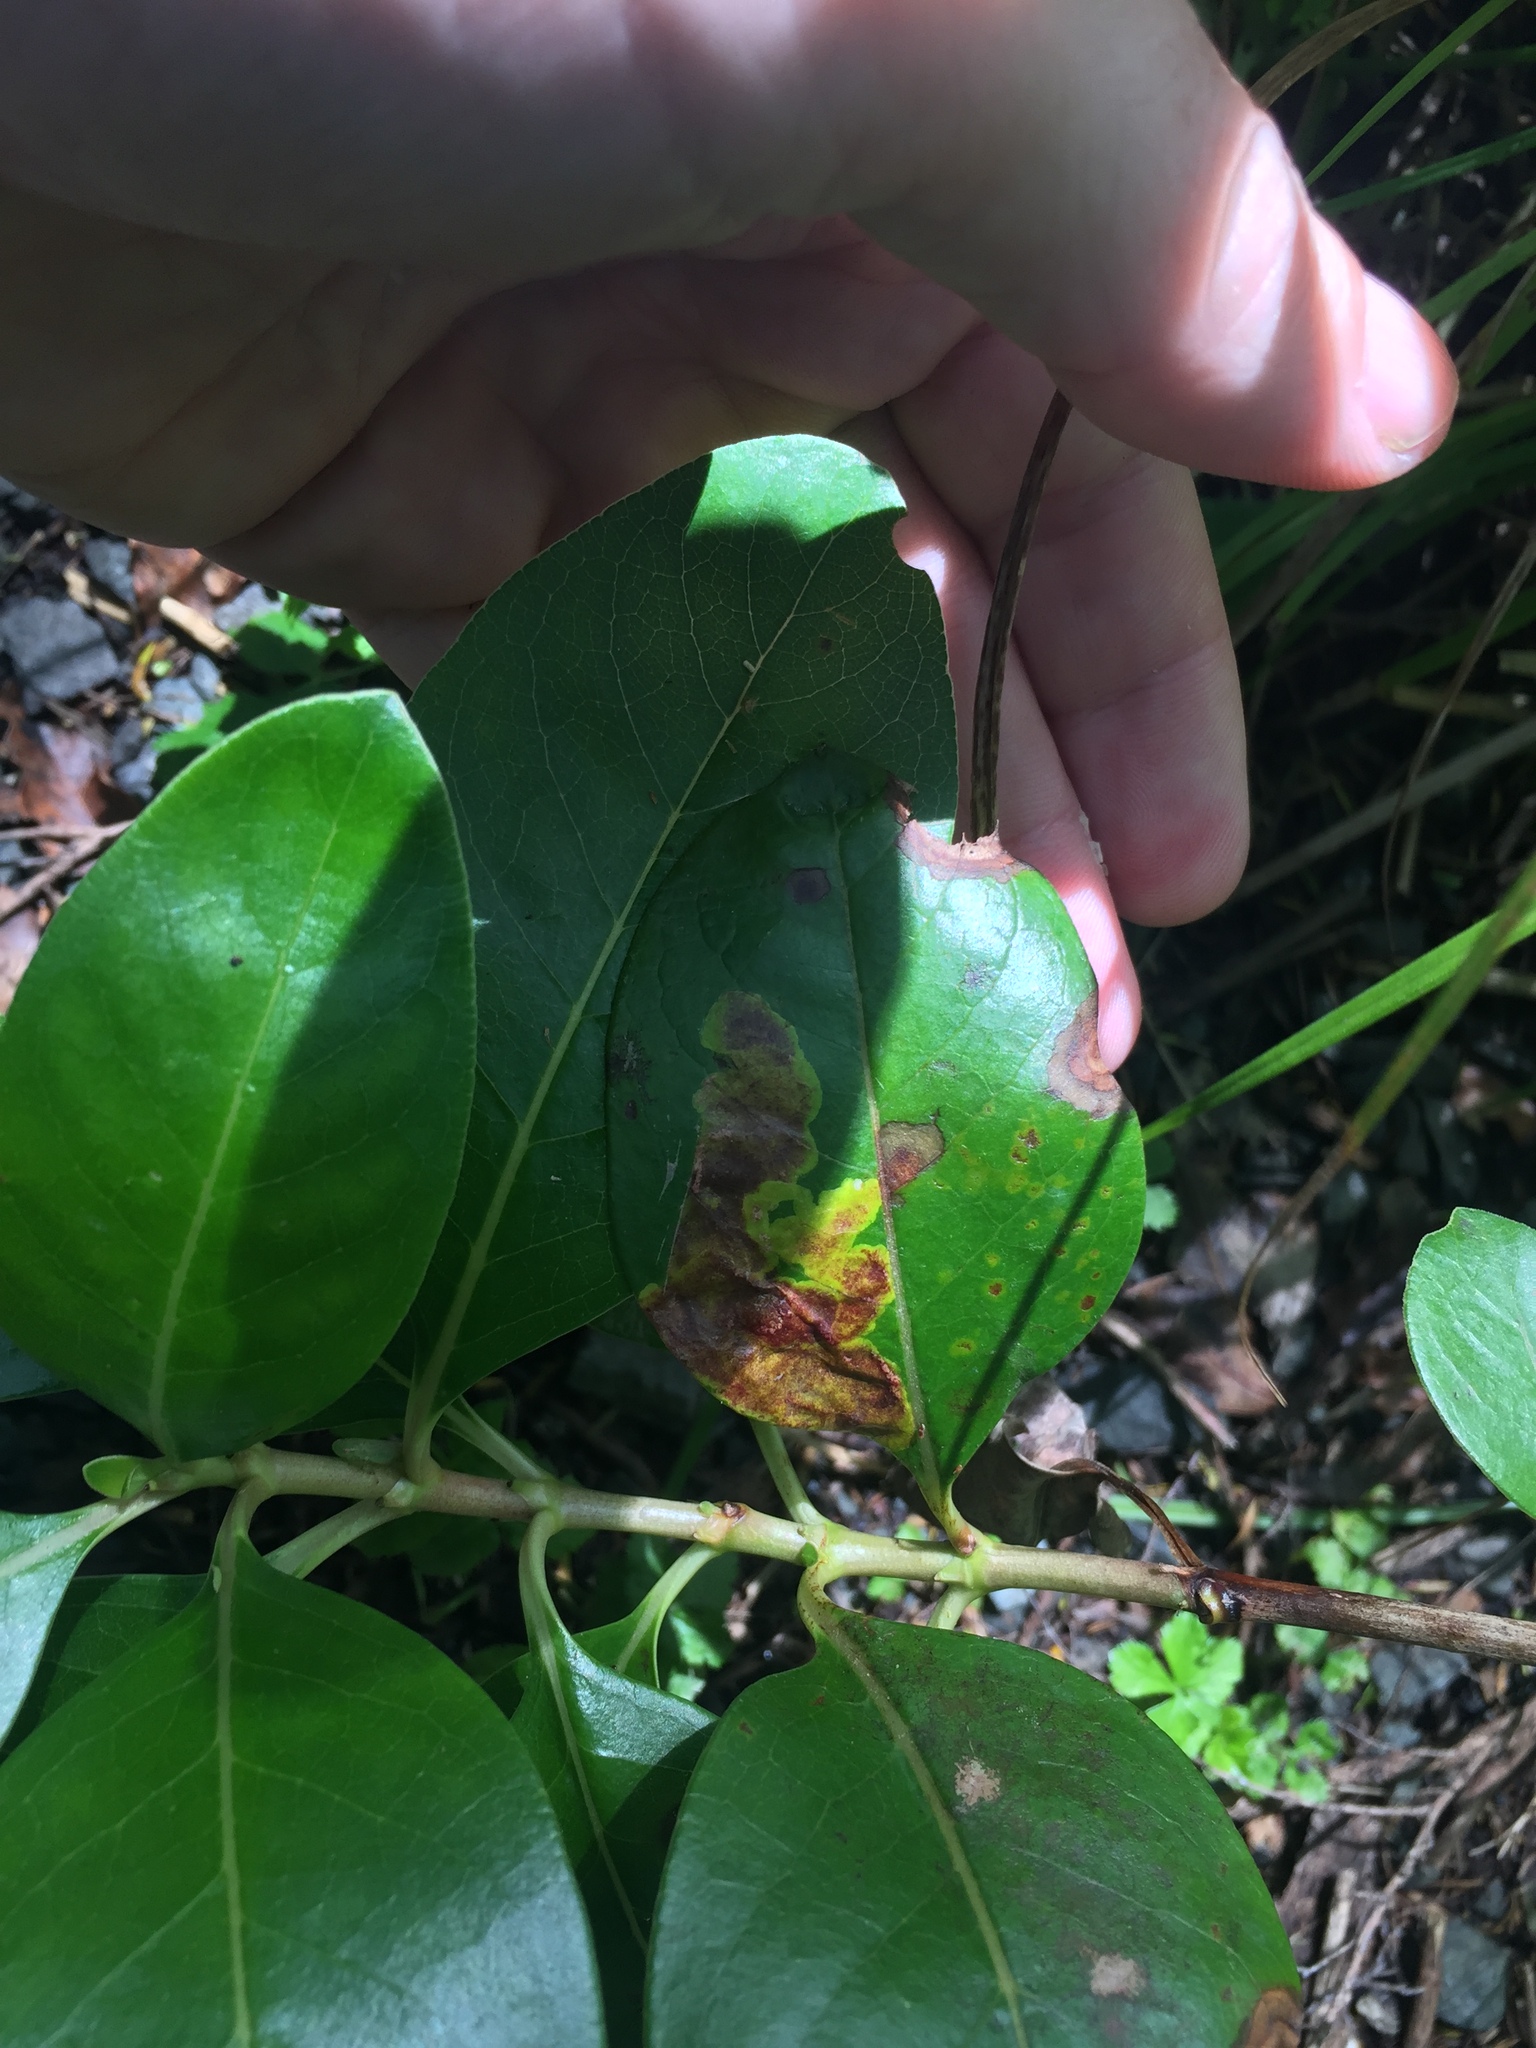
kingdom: Animalia
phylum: Arthropoda
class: Insecta
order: Lepidoptera
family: Gracillariidae
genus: Corythoxestis
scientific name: Corythoxestis zorionella
